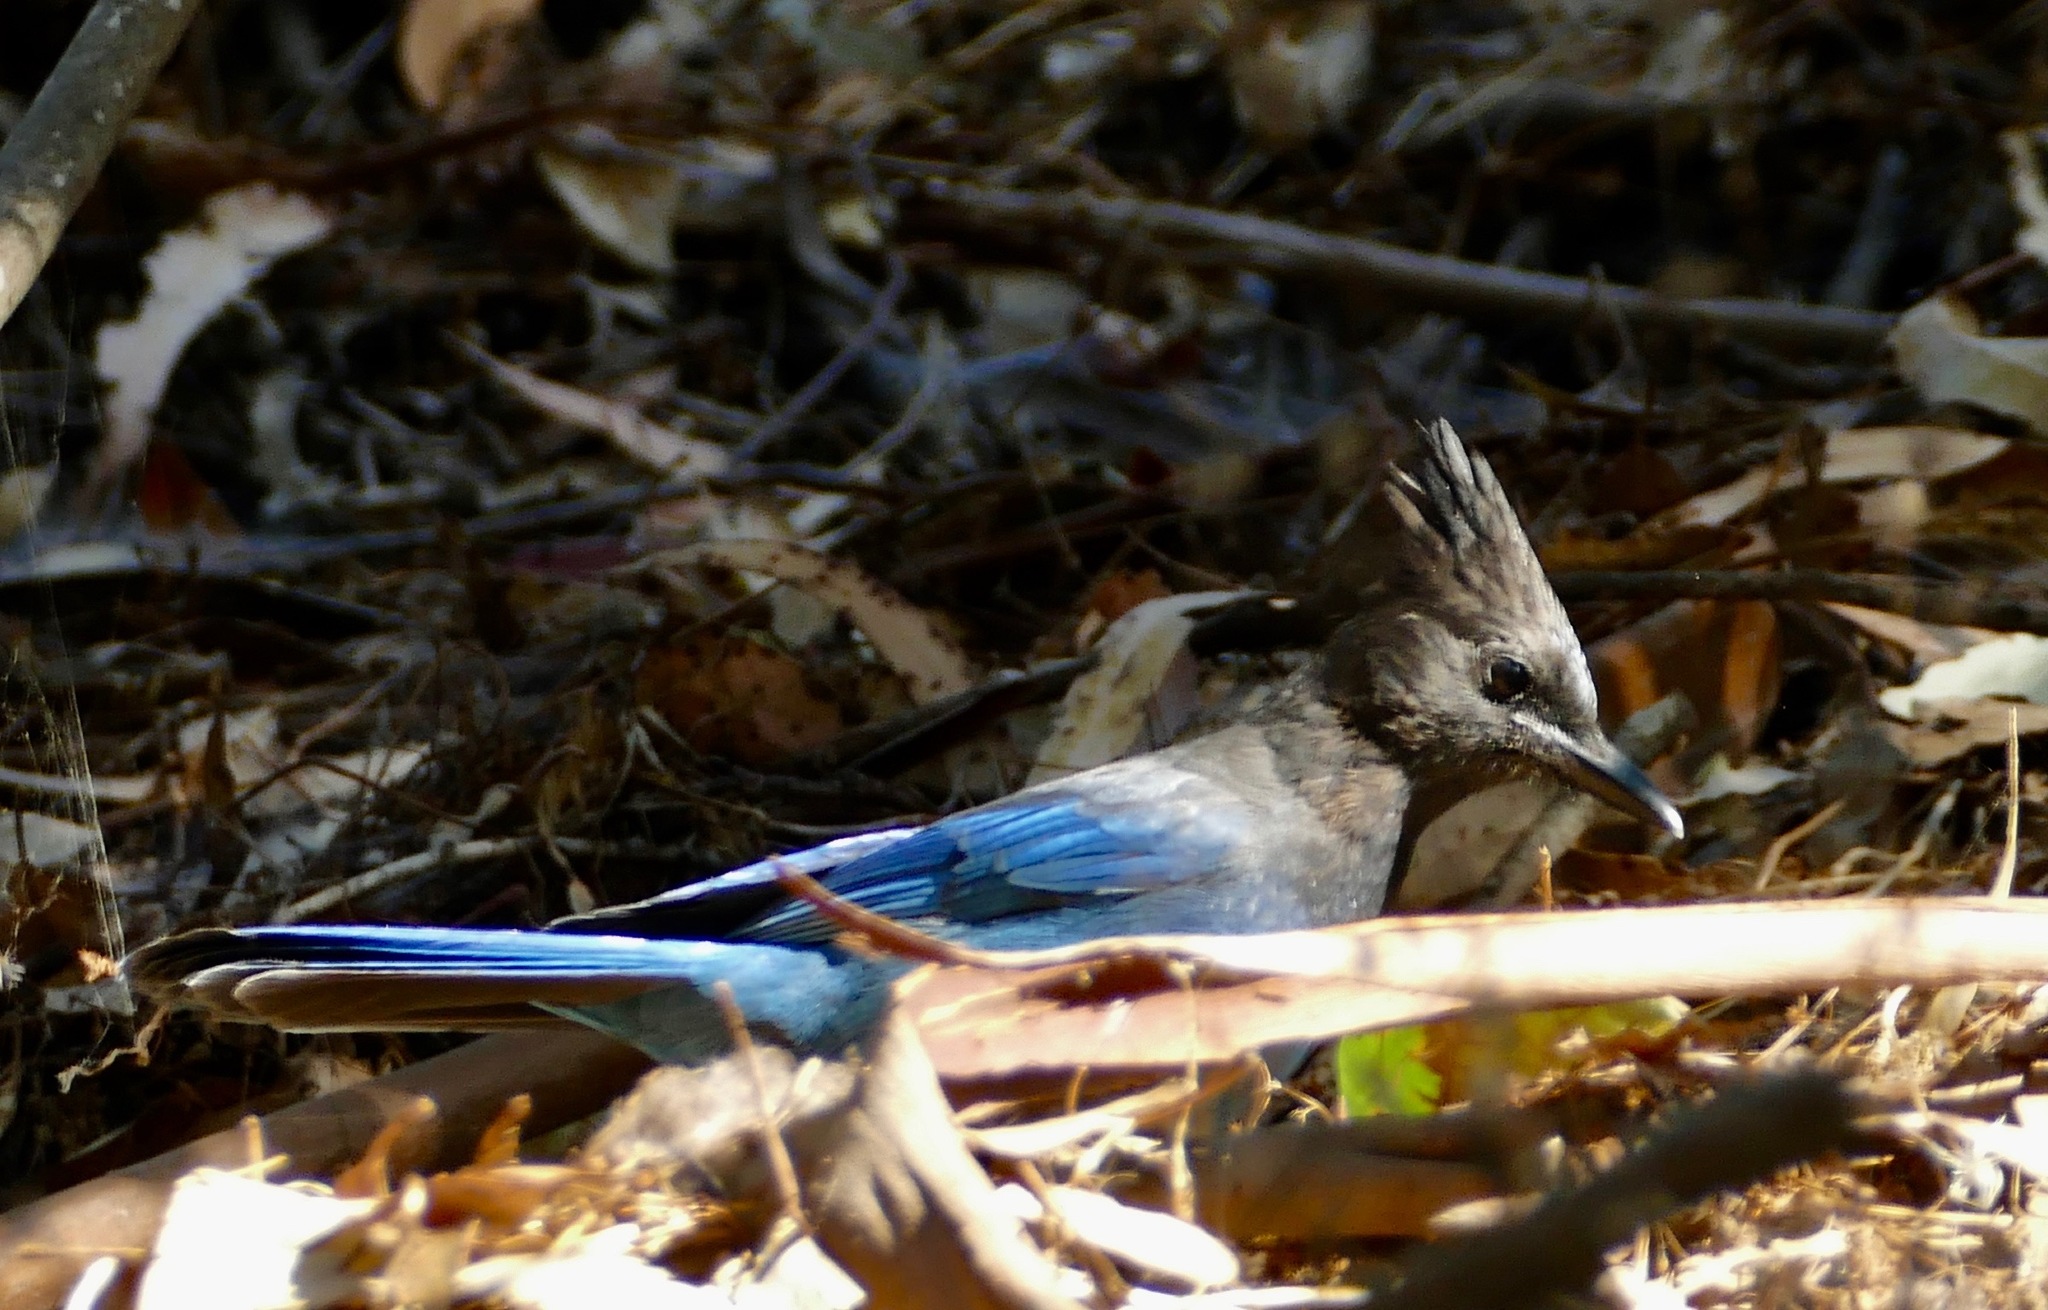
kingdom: Animalia
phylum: Chordata
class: Aves
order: Passeriformes
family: Corvidae
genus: Cyanocitta
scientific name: Cyanocitta stelleri
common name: Steller's jay
